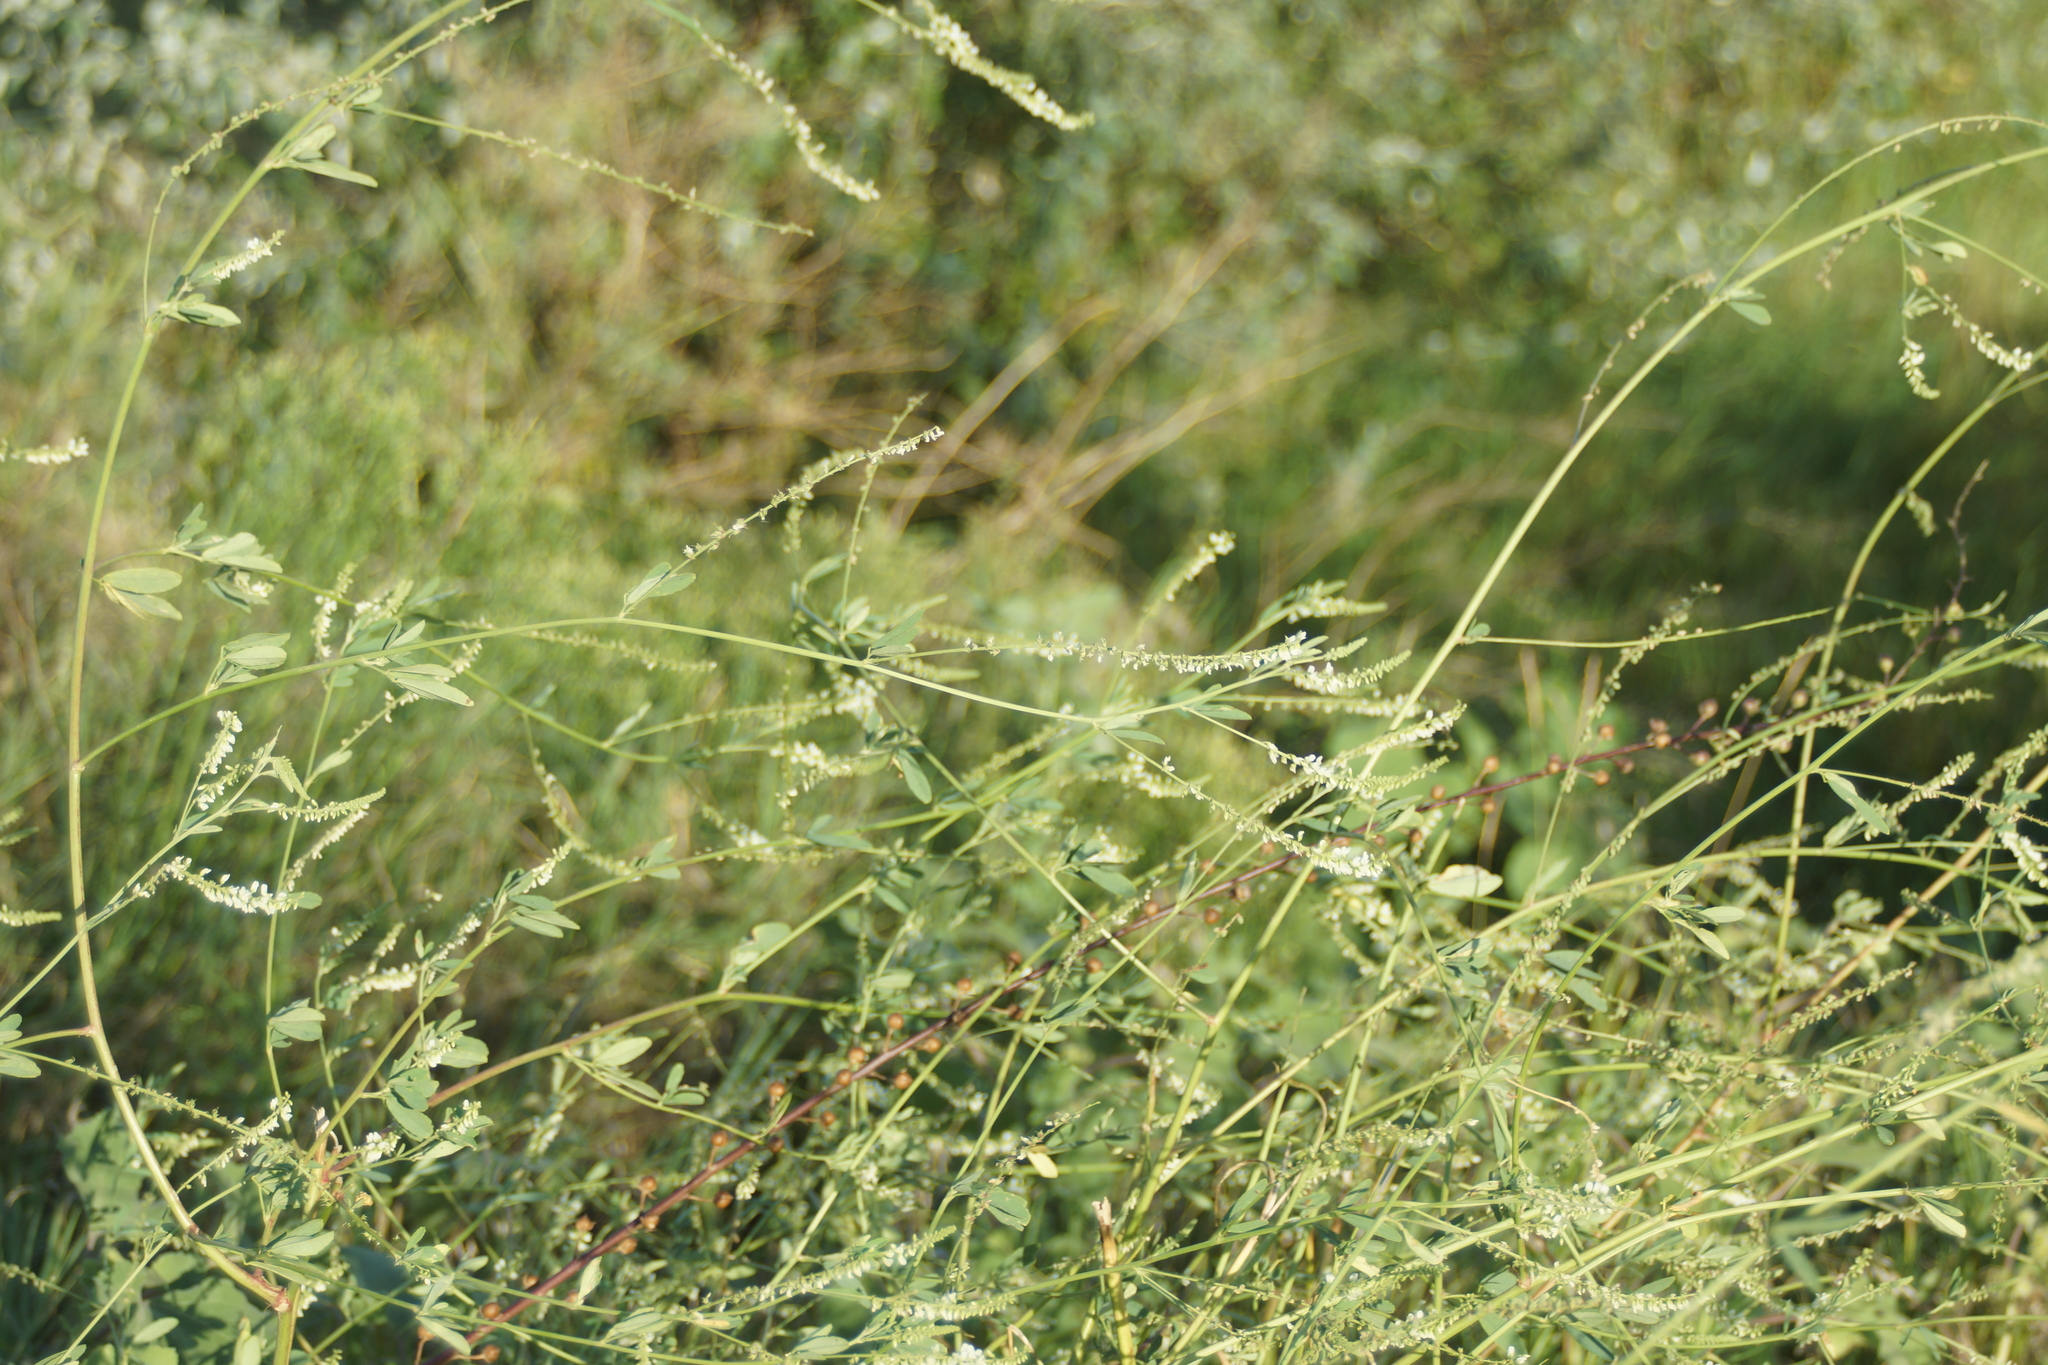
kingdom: Plantae
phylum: Tracheophyta
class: Magnoliopsida
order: Fabales
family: Fabaceae
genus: Melilotus
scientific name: Melilotus albus
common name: White melilot
